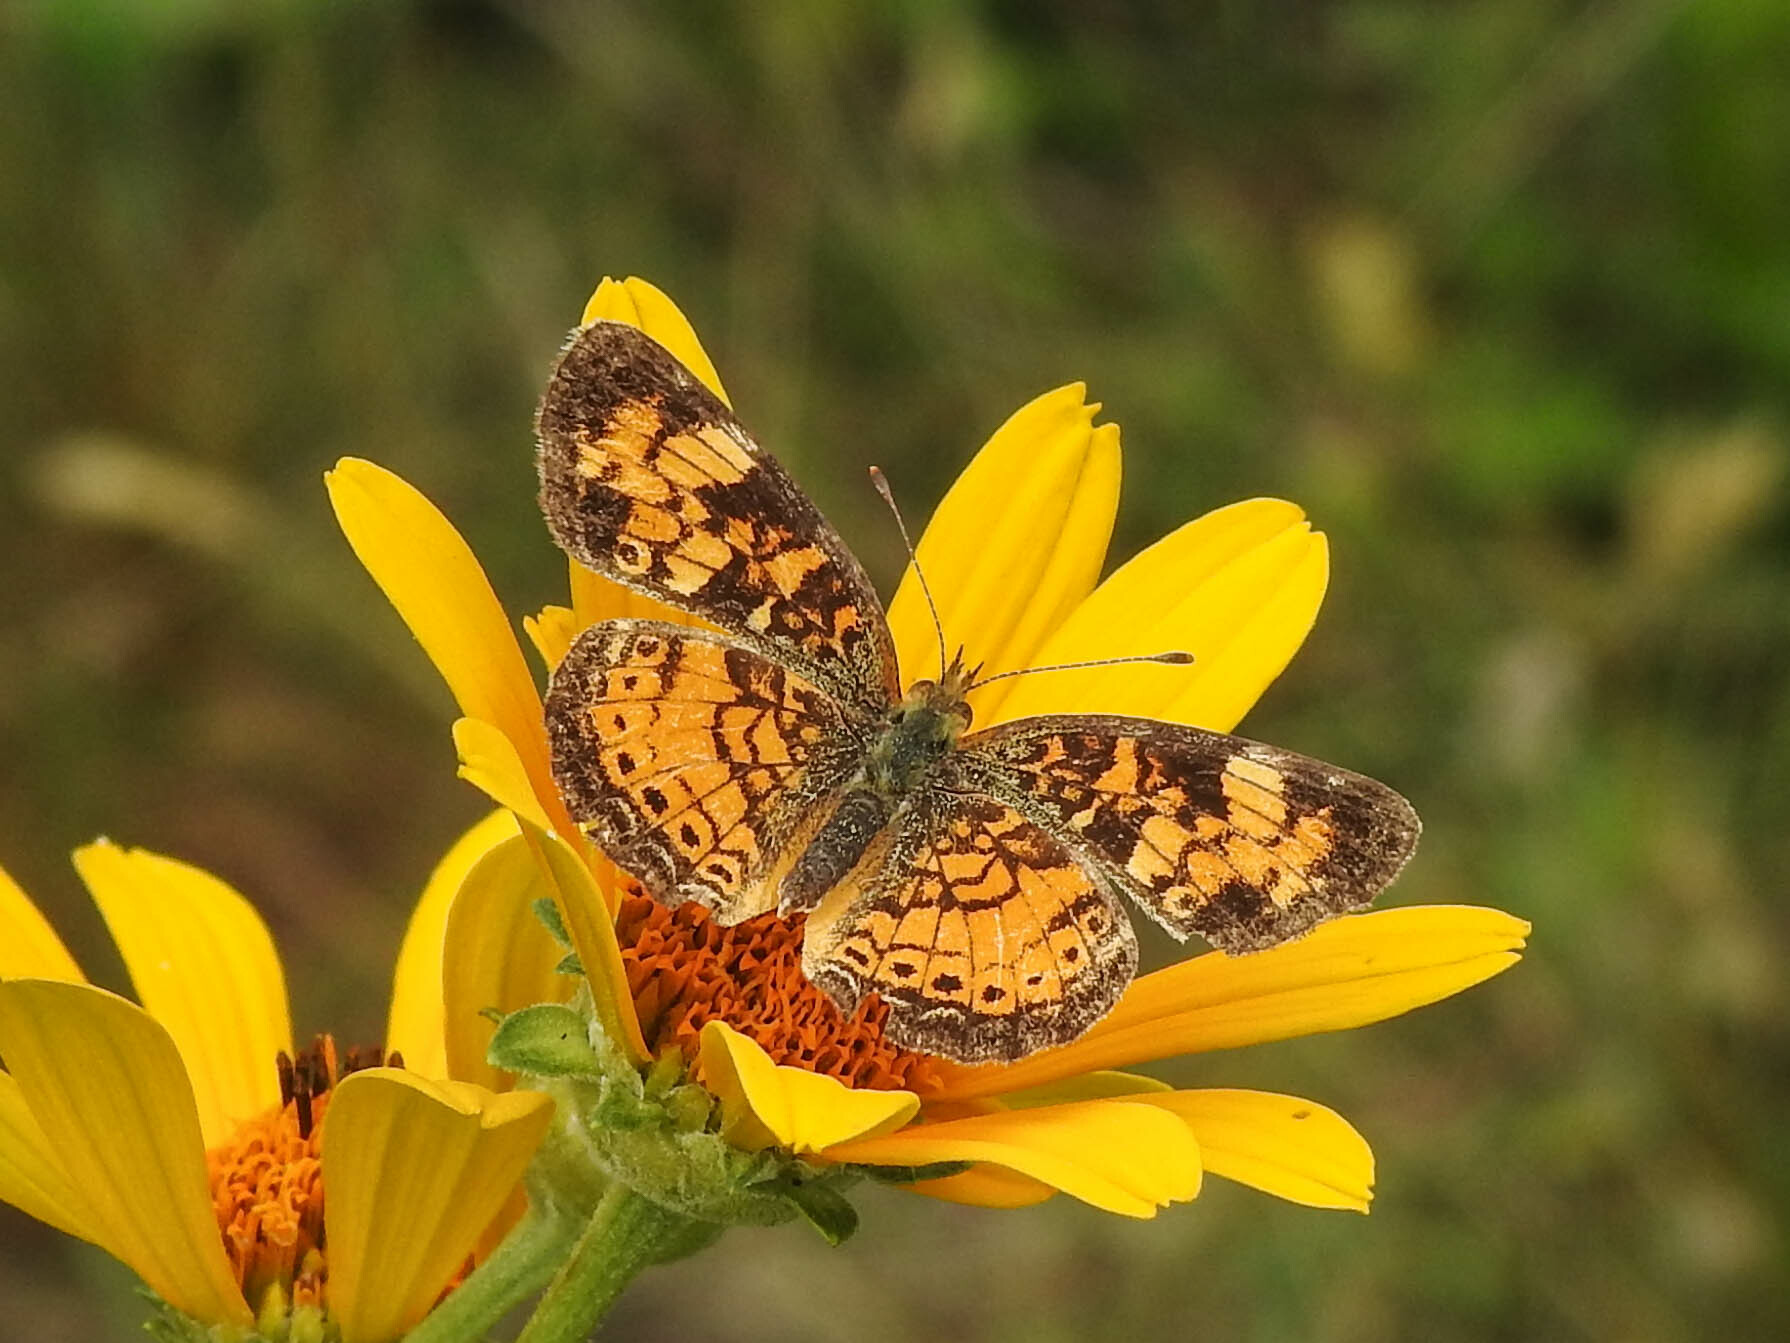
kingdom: Animalia
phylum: Arthropoda
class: Insecta
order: Lepidoptera
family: Nymphalidae
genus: Phyciodes
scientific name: Phyciodes tharos
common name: Pearl crescent
